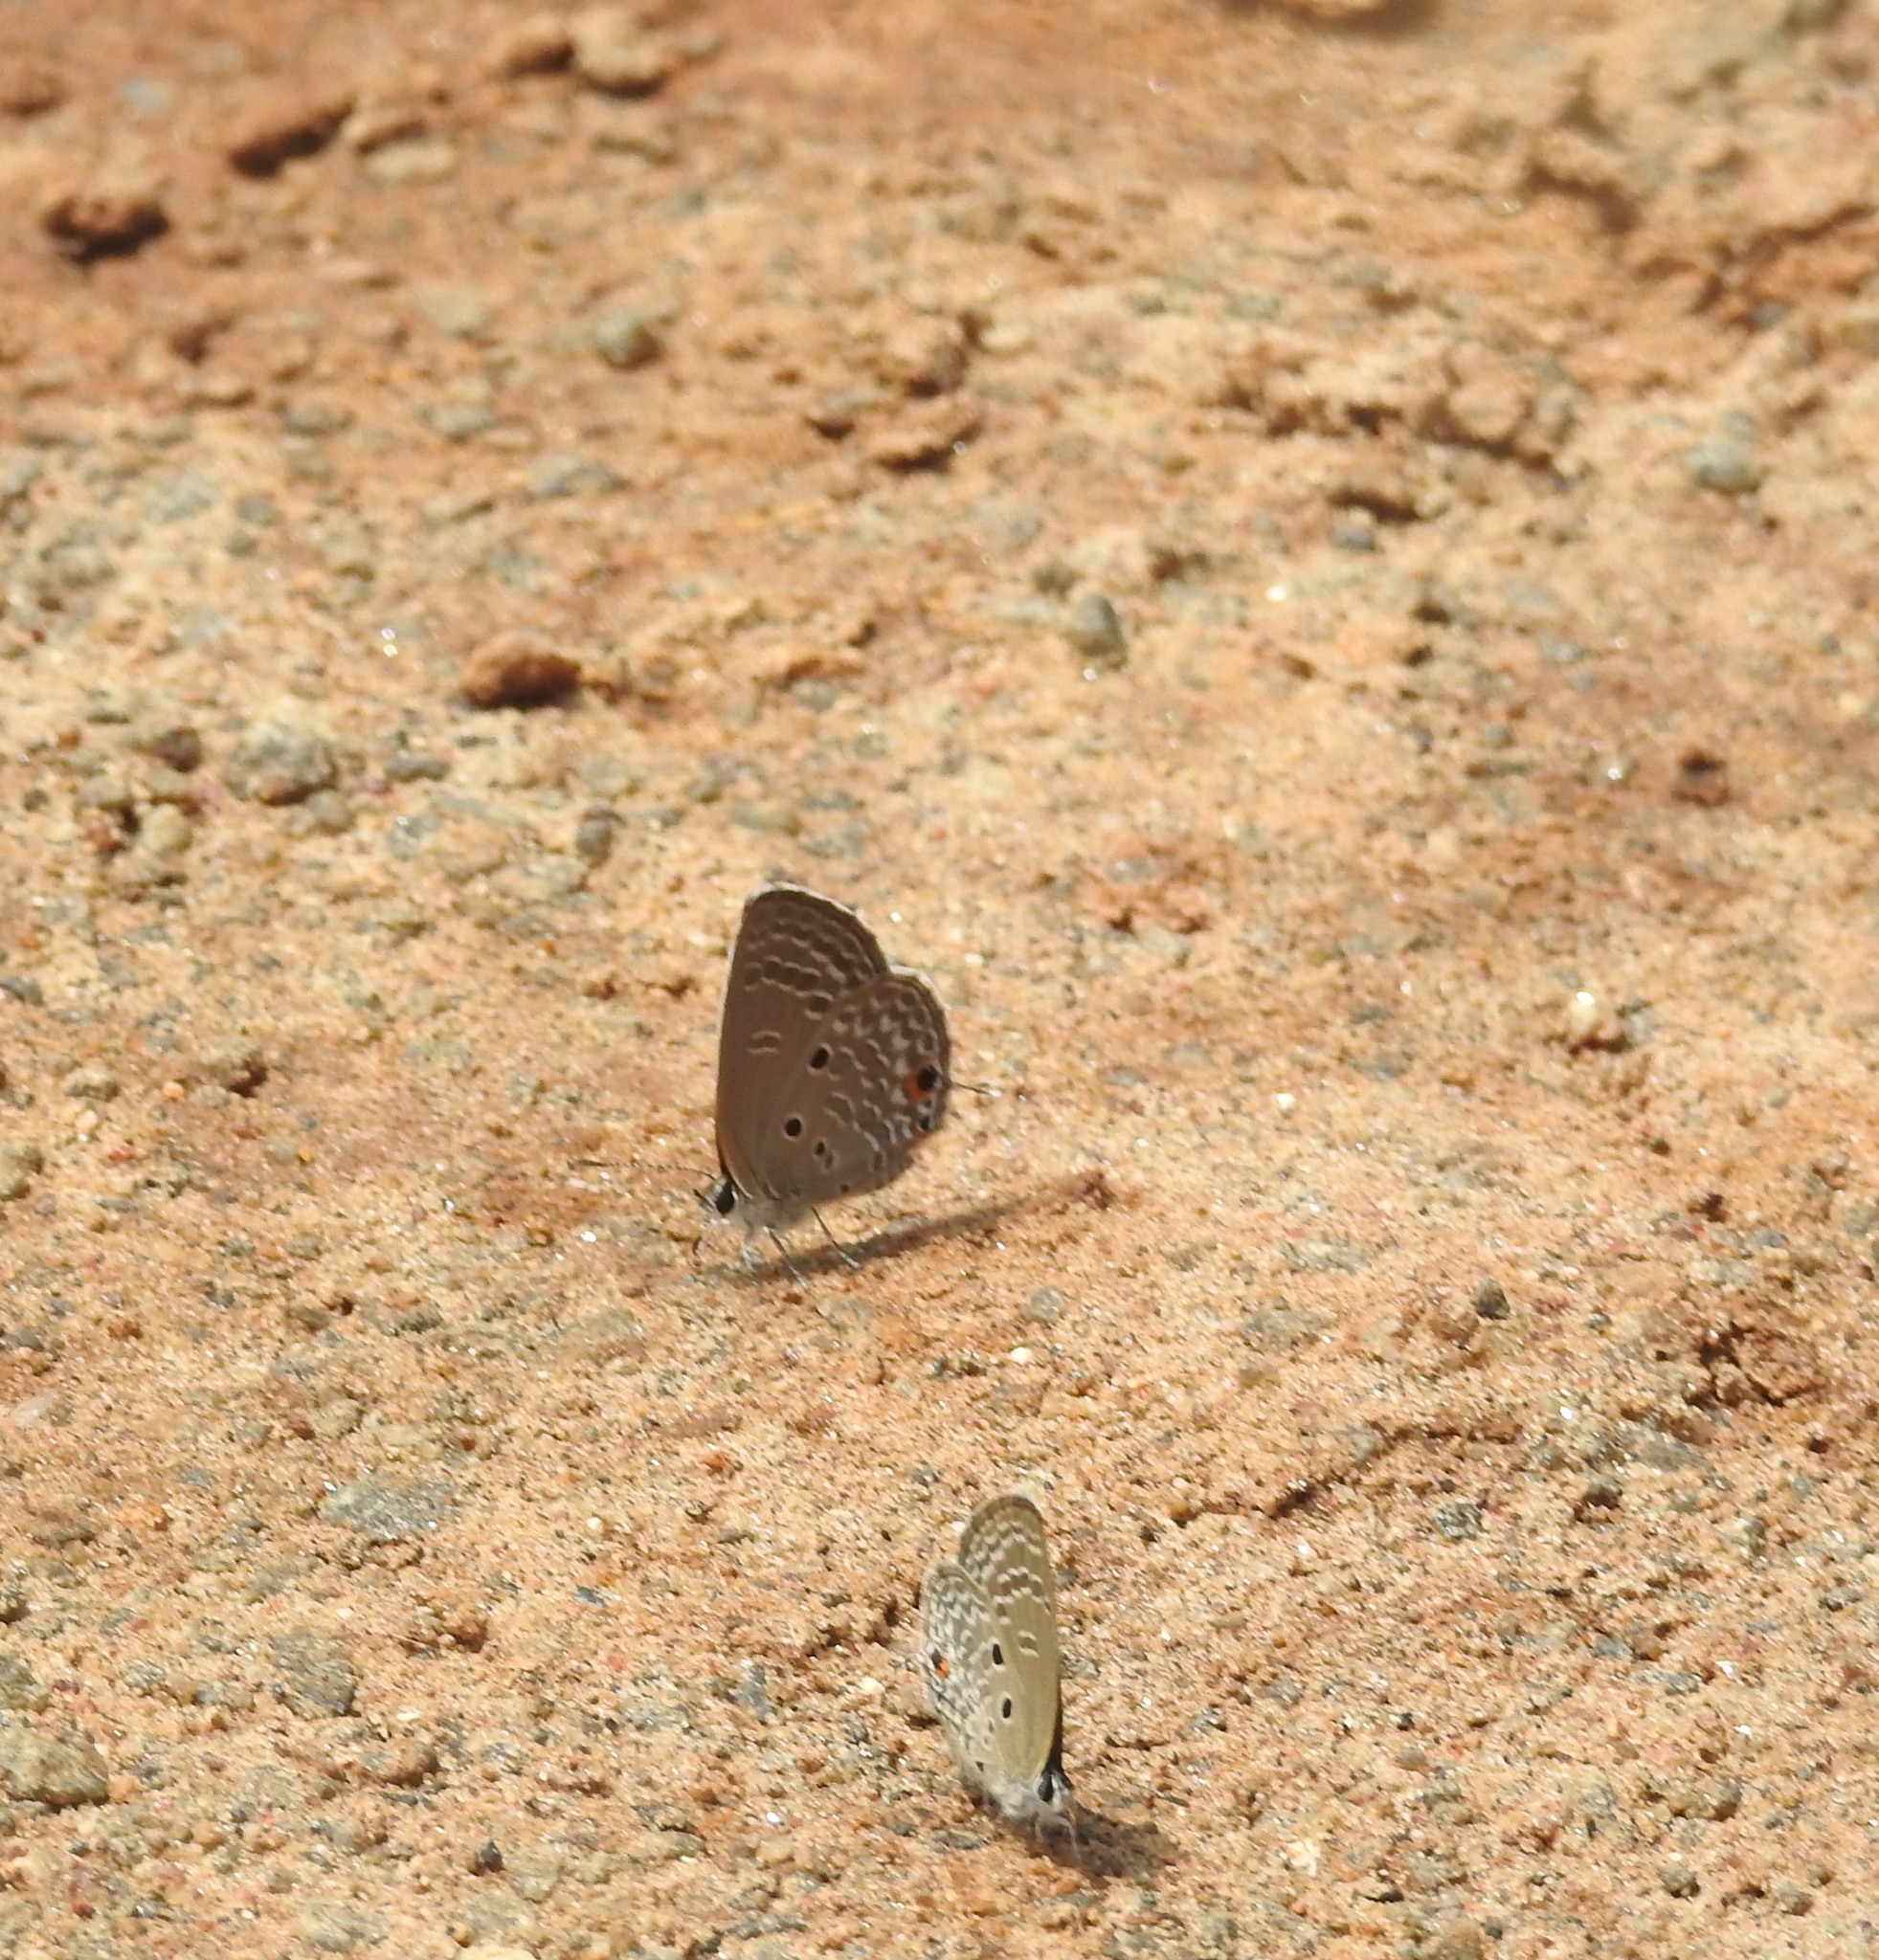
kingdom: Animalia
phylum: Arthropoda
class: Insecta
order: Lepidoptera
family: Lycaenidae
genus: Luthrodes
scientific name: Luthrodes pandava
